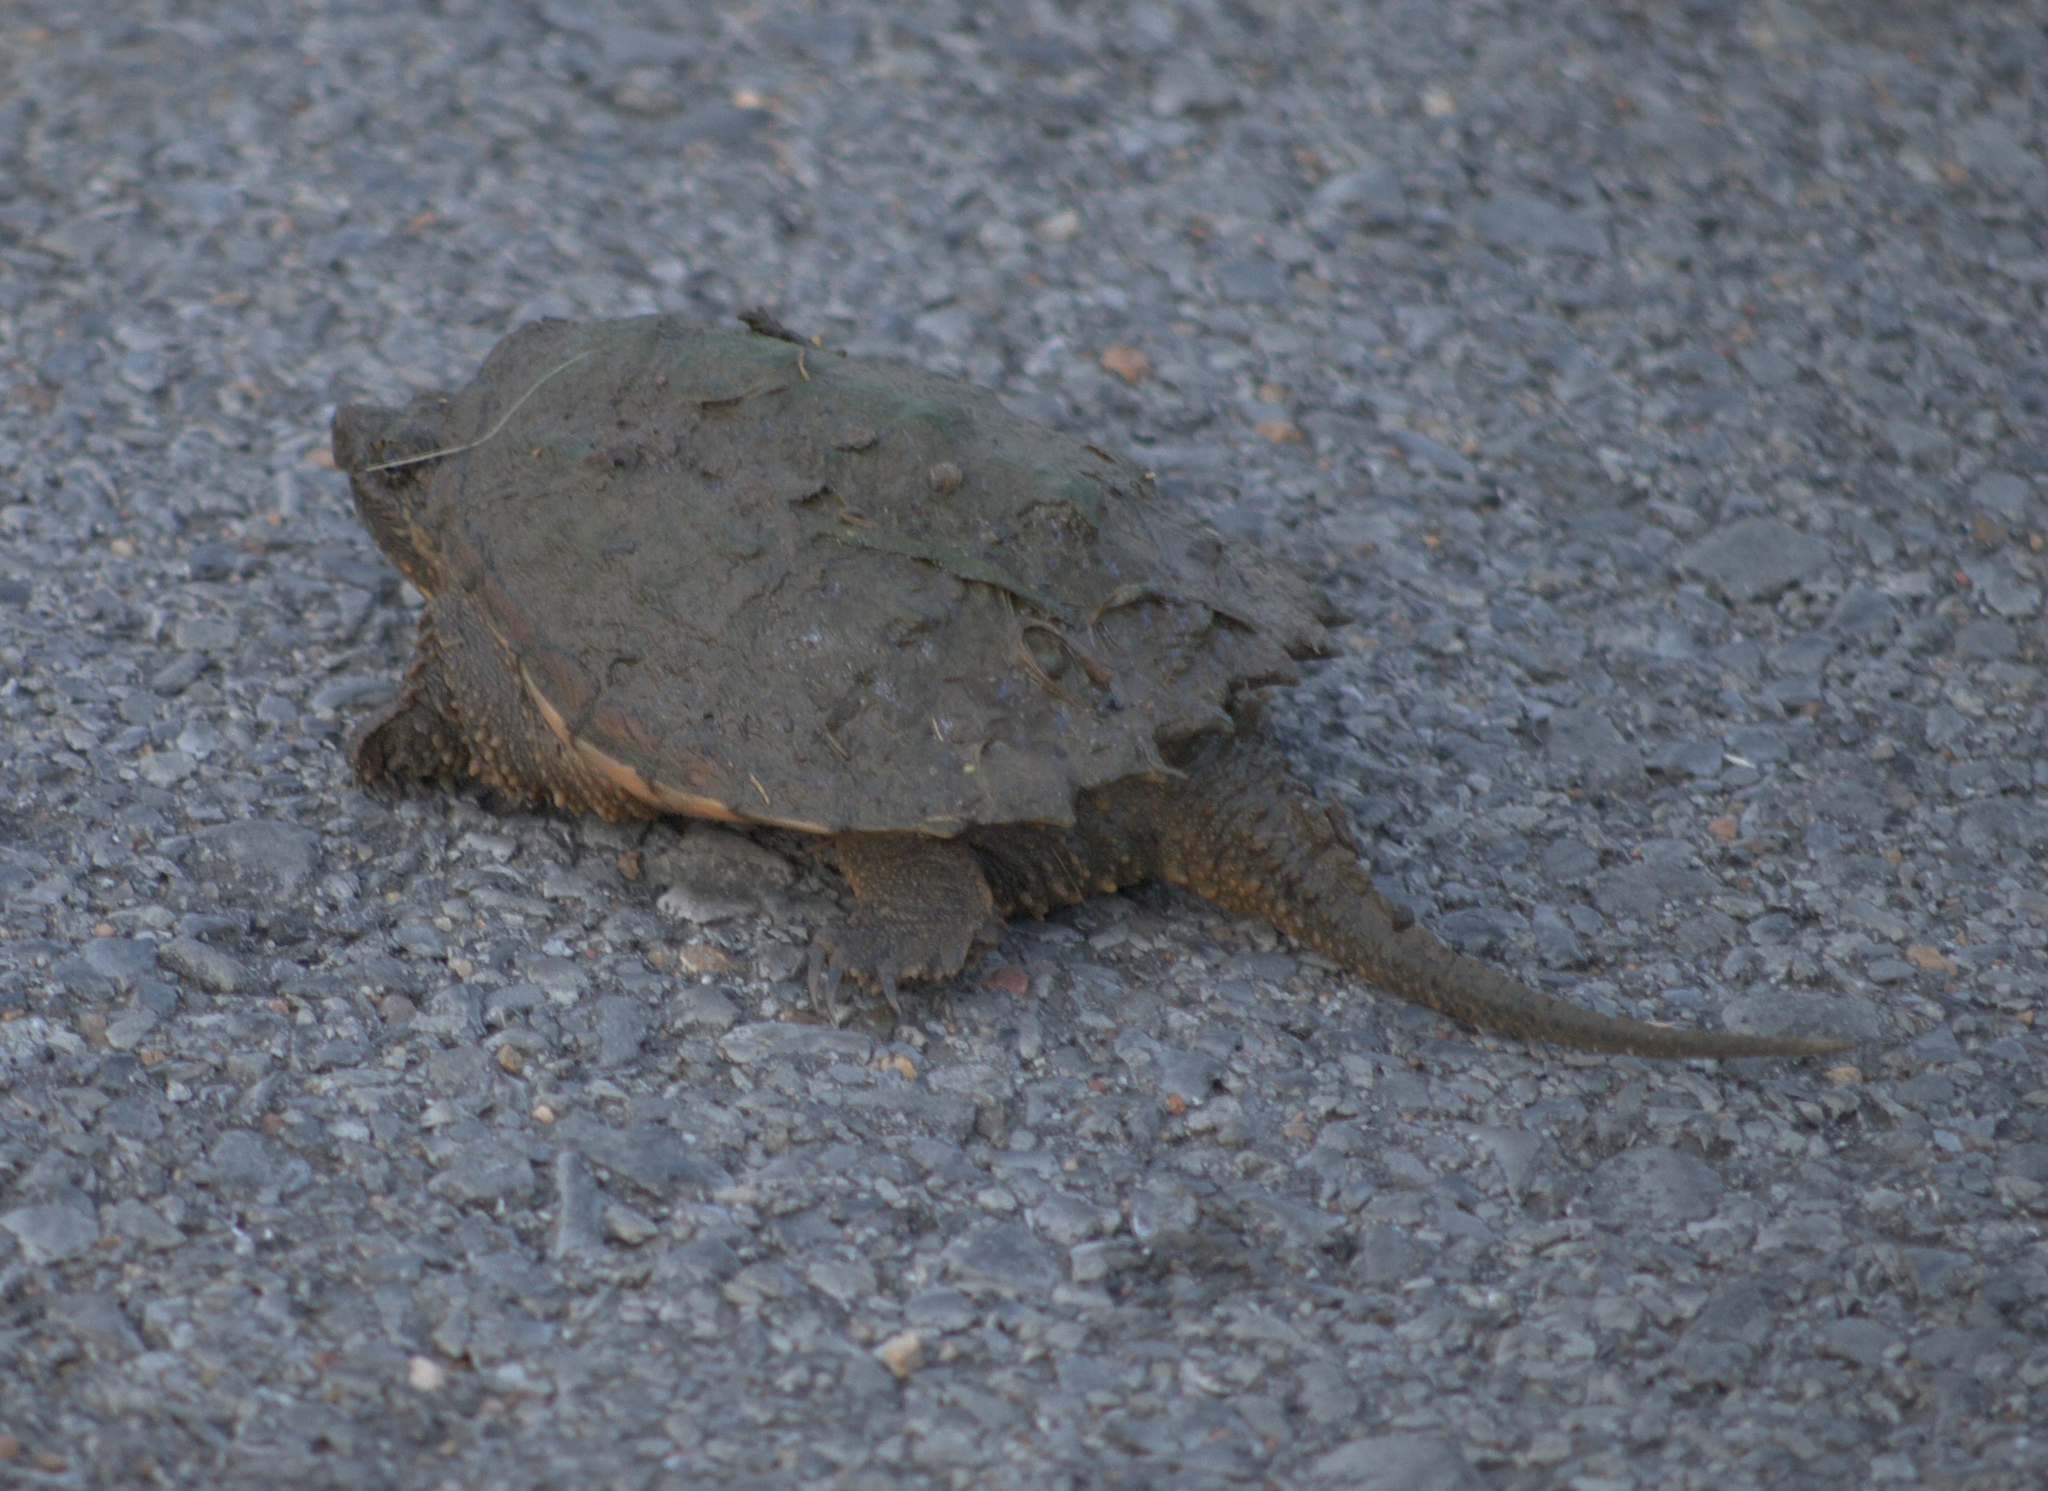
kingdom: Animalia
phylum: Chordata
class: Testudines
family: Chelydridae
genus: Chelydra
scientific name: Chelydra serpentina
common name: Common snapping turtle
